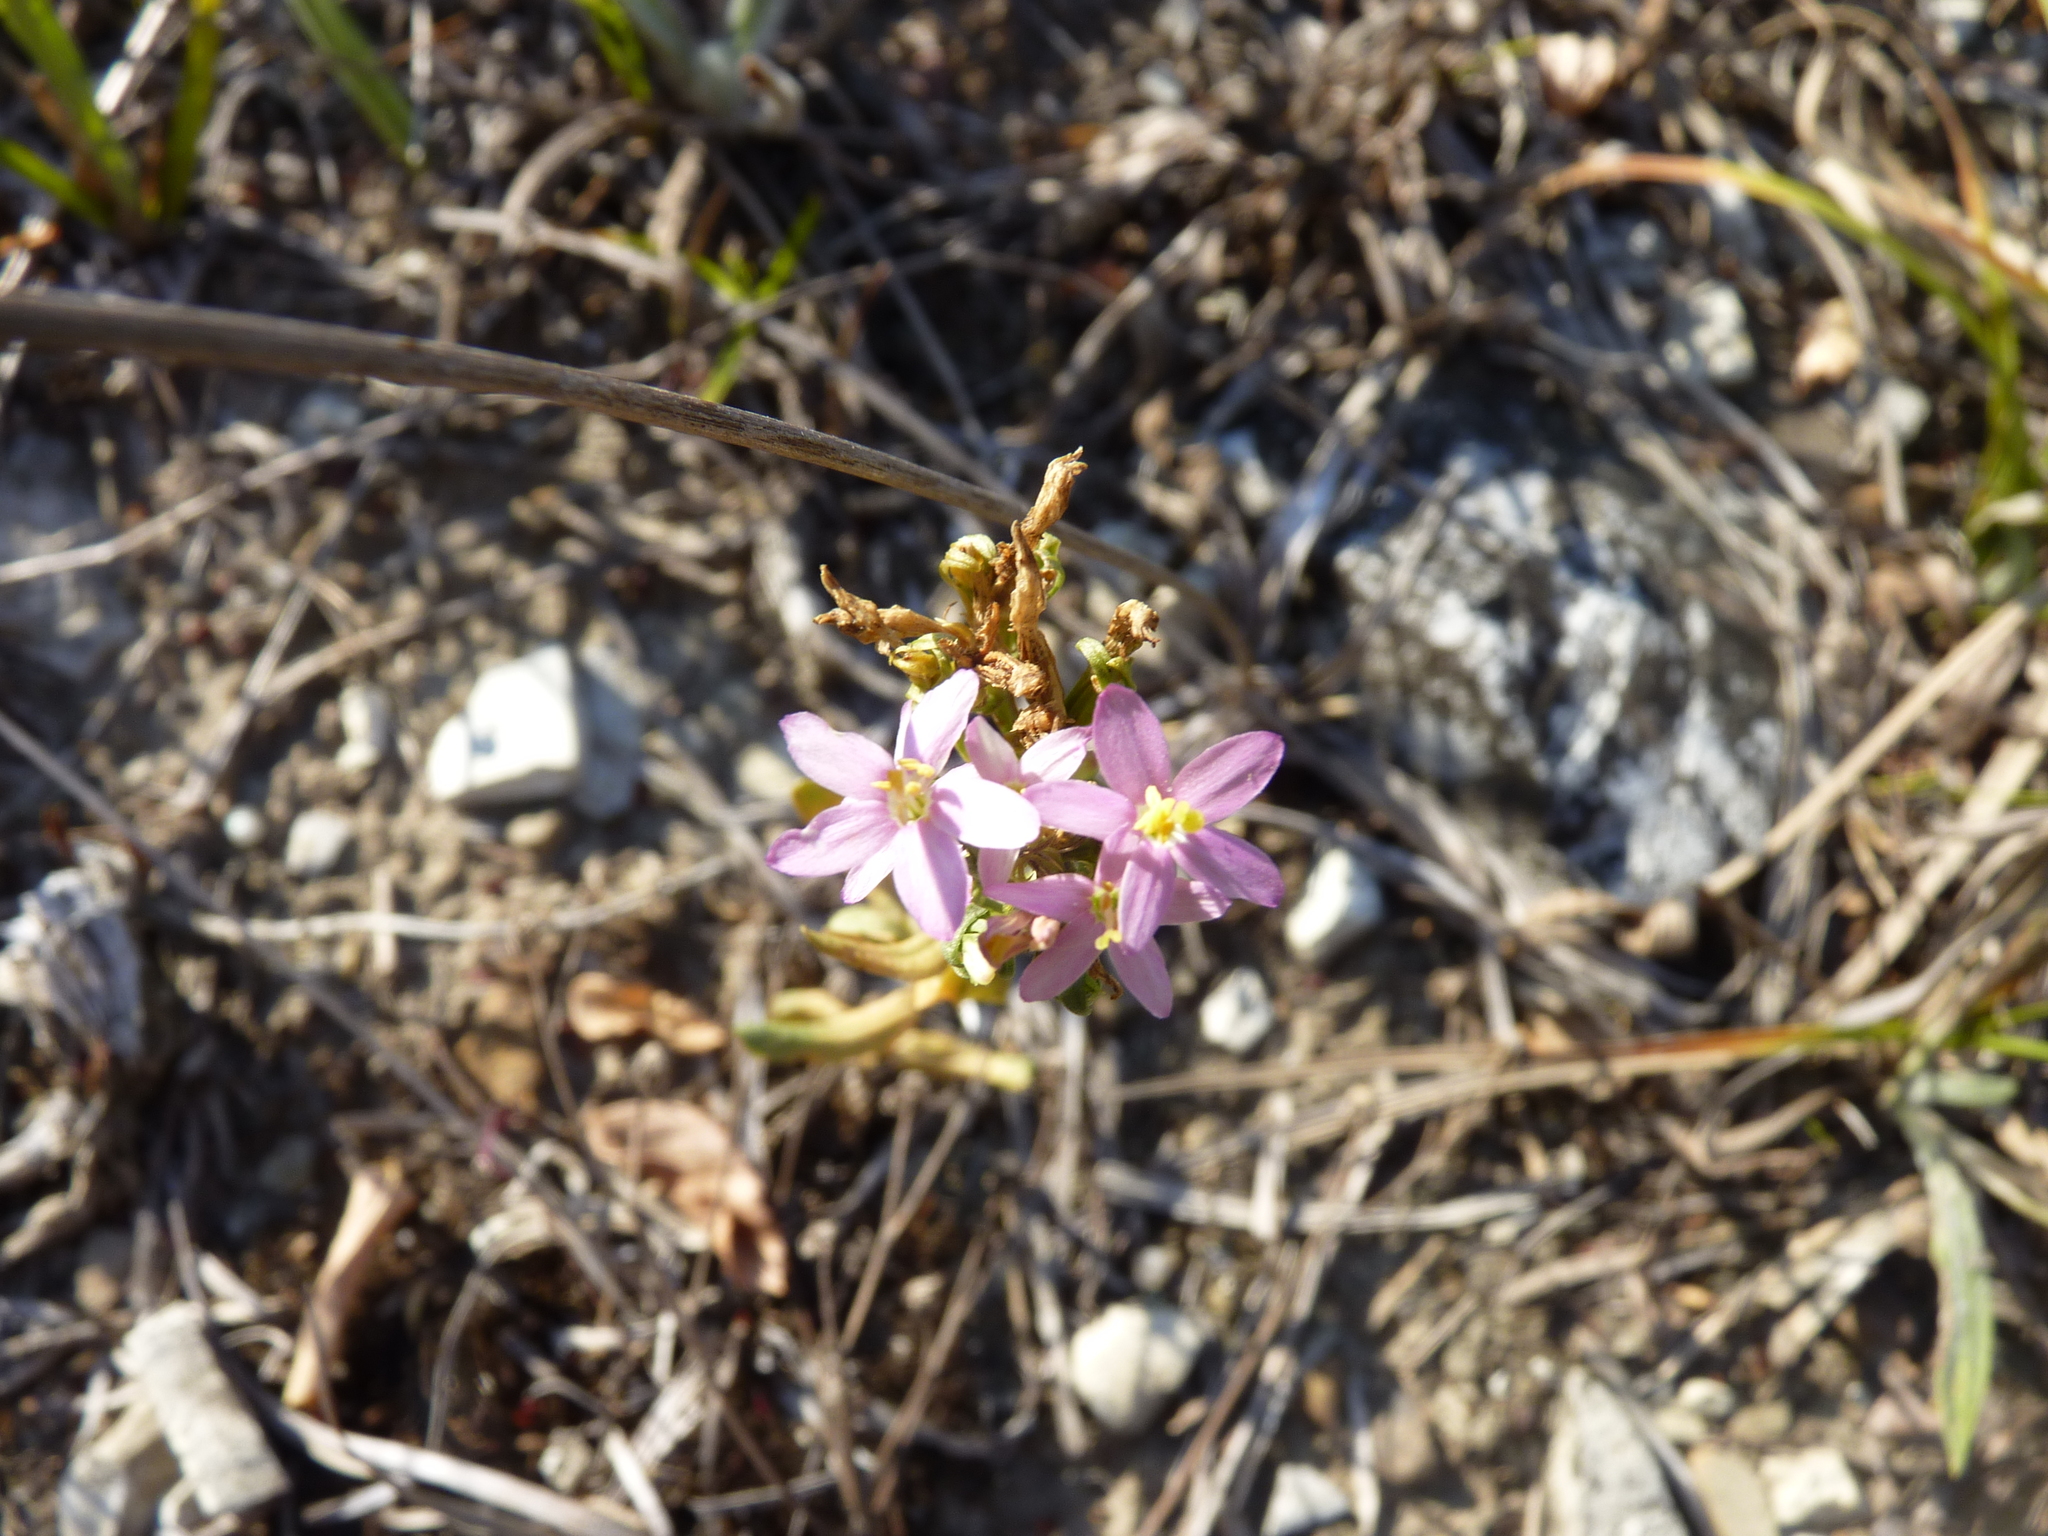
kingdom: Plantae
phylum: Tracheophyta
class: Magnoliopsida
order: Gentianales
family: Gentianaceae
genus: Centaurium
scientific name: Centaurium erythraea
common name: Common centaury
